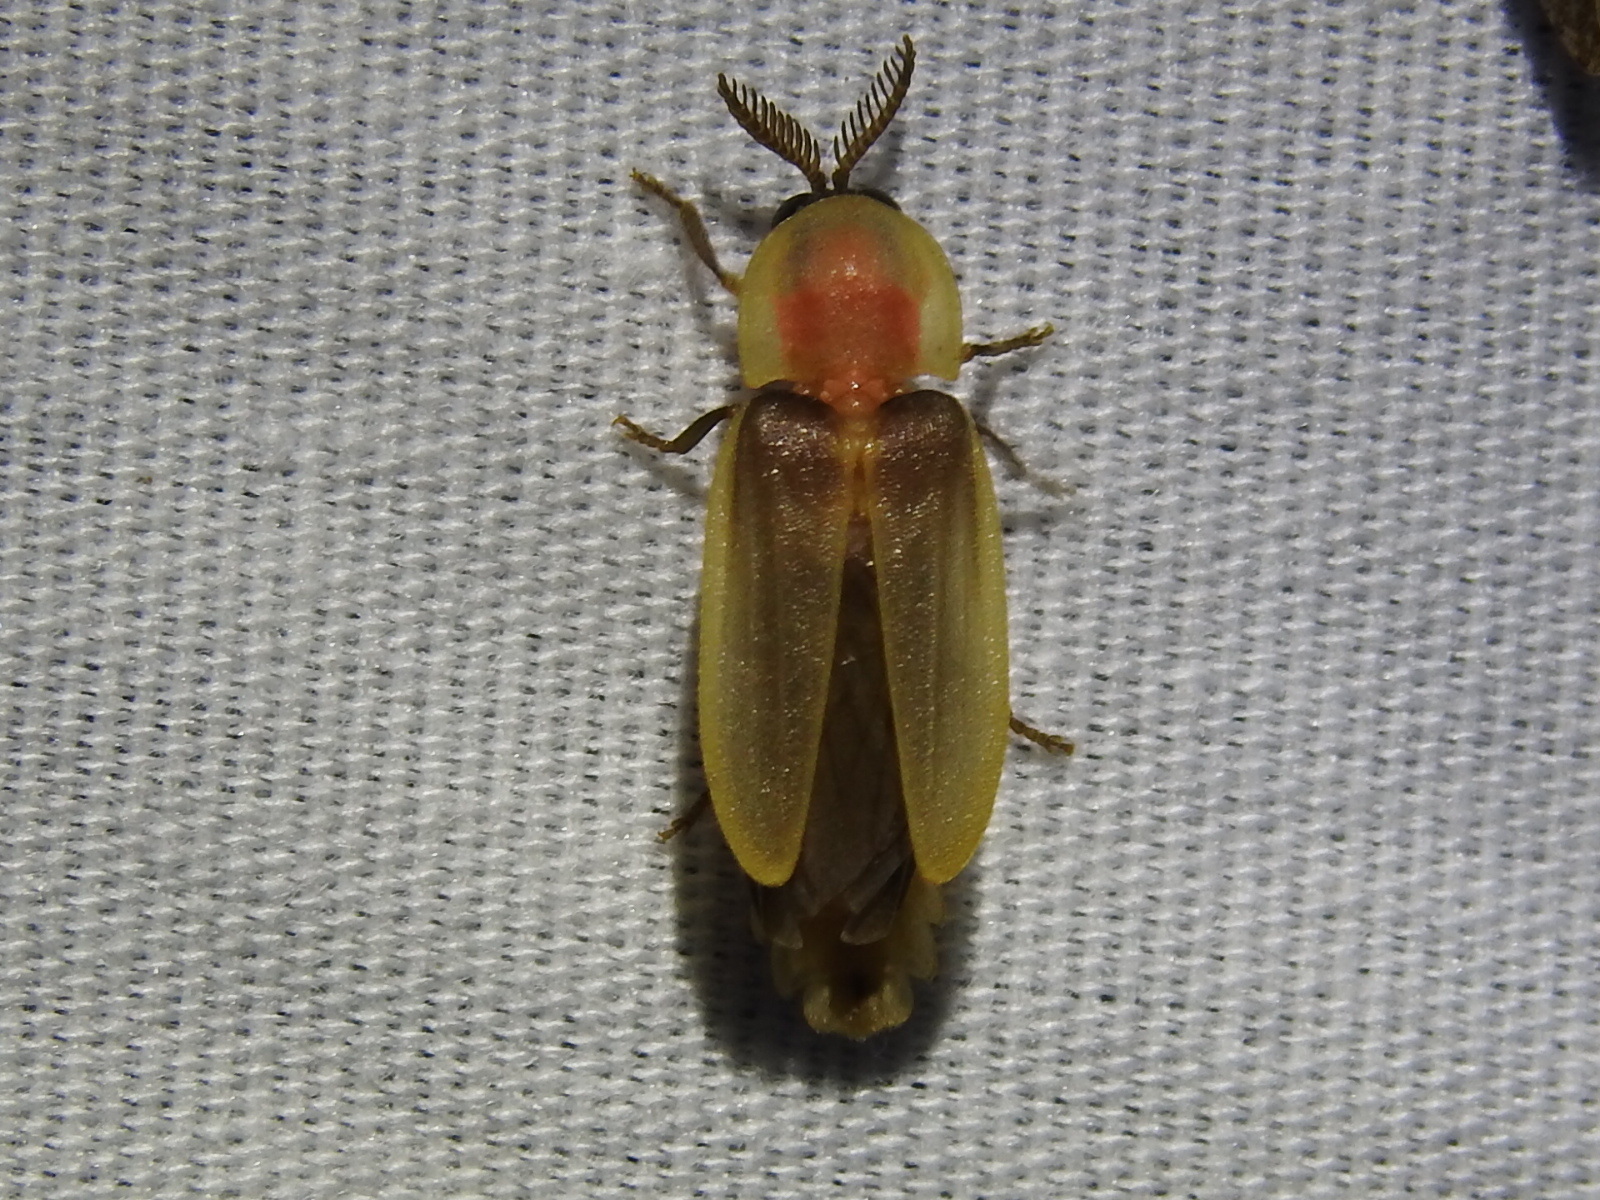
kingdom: Animalia
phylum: Arthropoda
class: Insecta
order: Coleoptera
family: Lampyridae
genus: Pleotomus
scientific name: Pleotomus pallens
